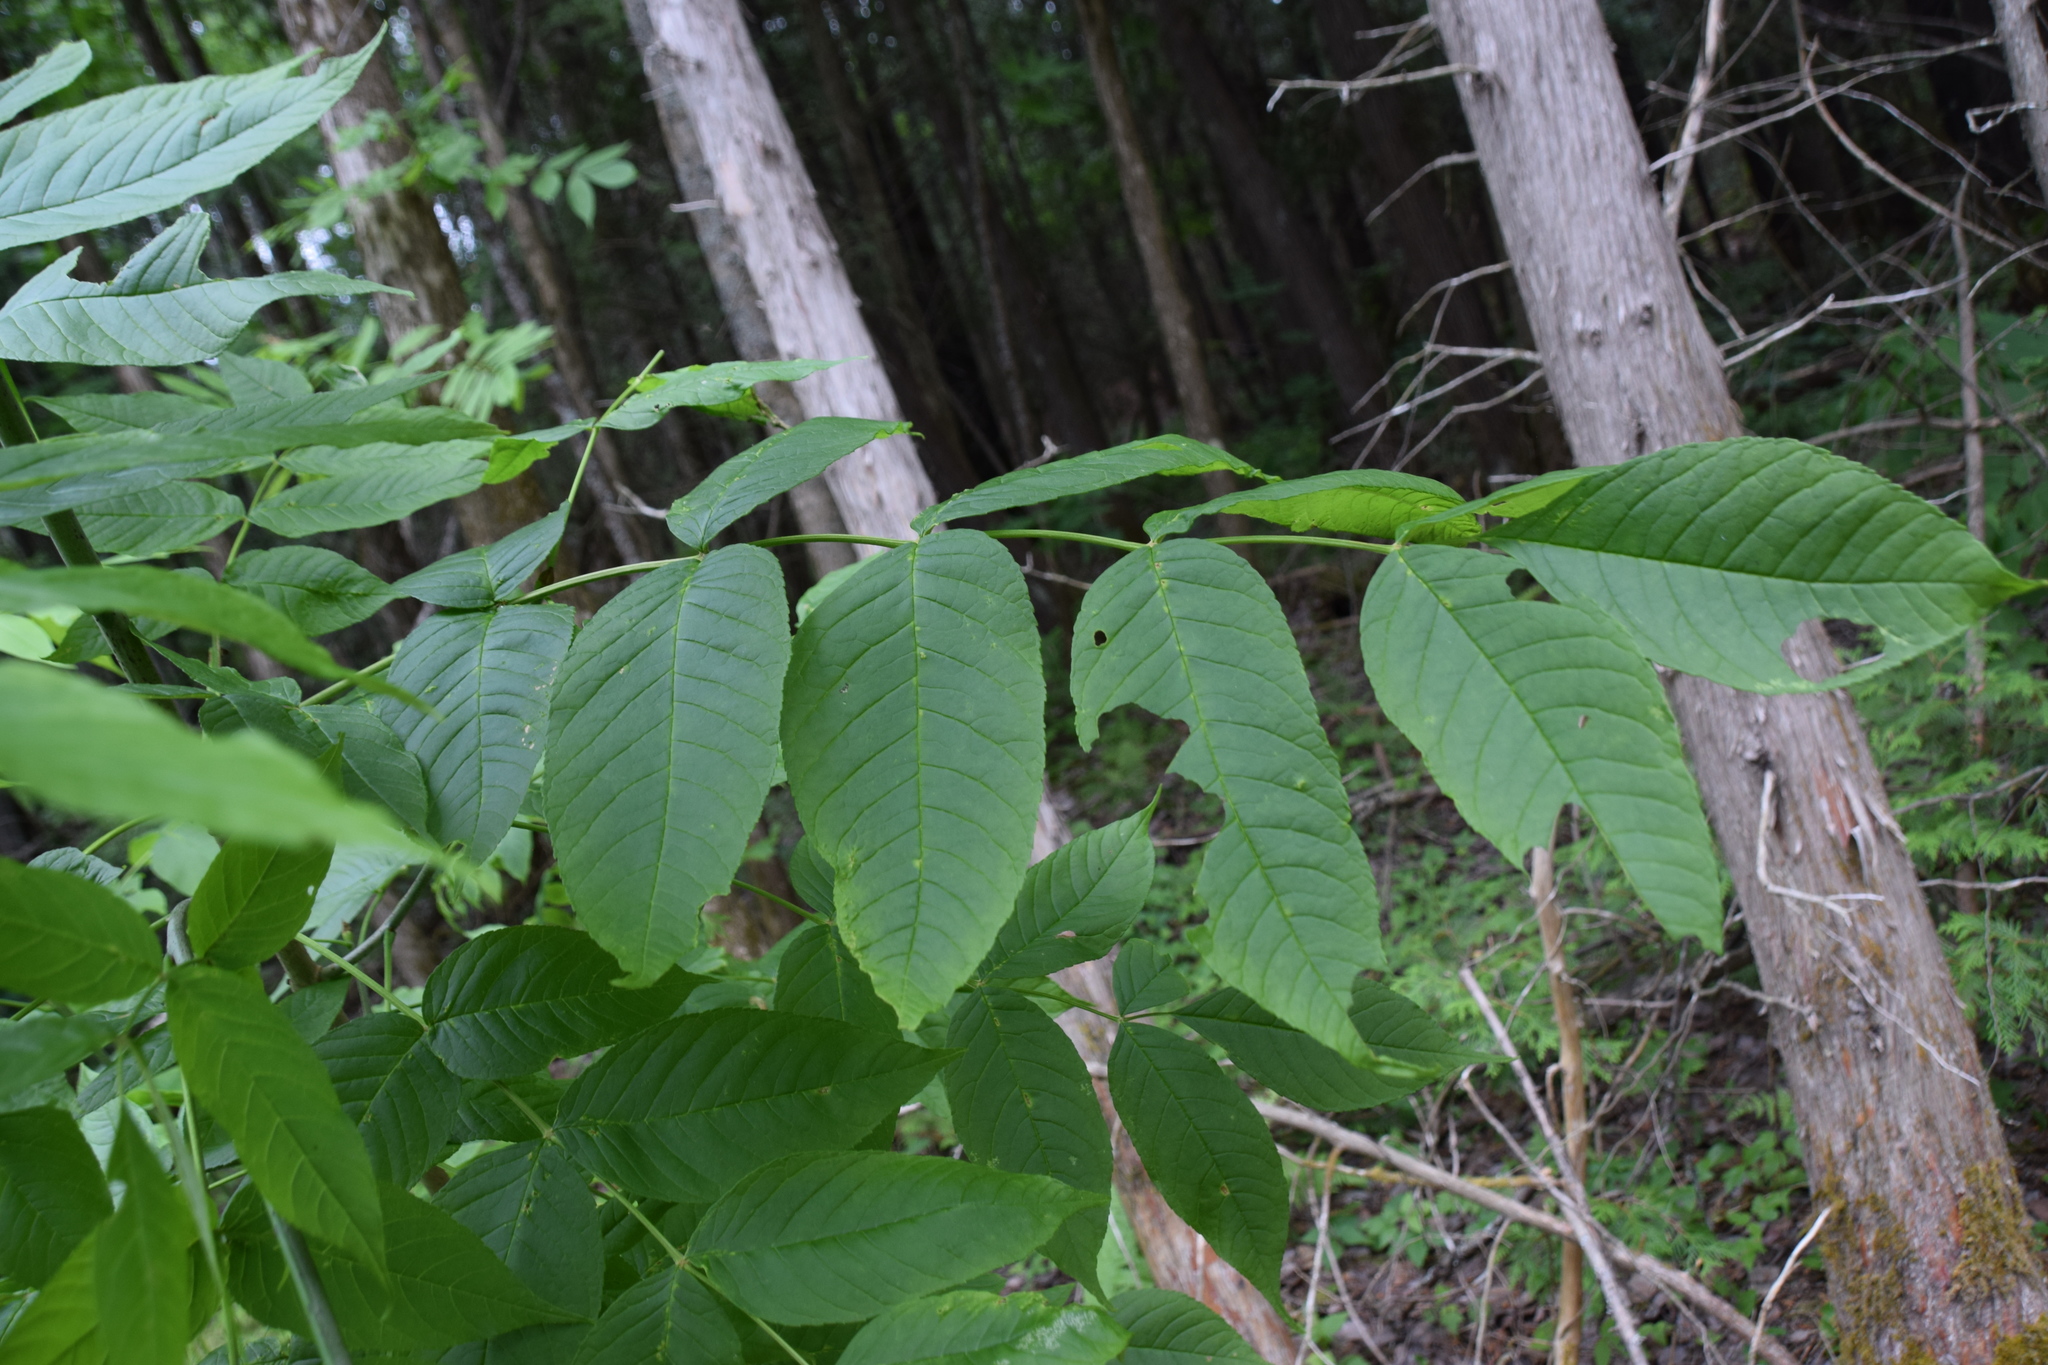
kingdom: Plantae
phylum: Tracheophyta
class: Magnoliopsida
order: Lamiales
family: Oleaceae
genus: Fraxinus
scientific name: Fraxinus nigra
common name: Black ash
